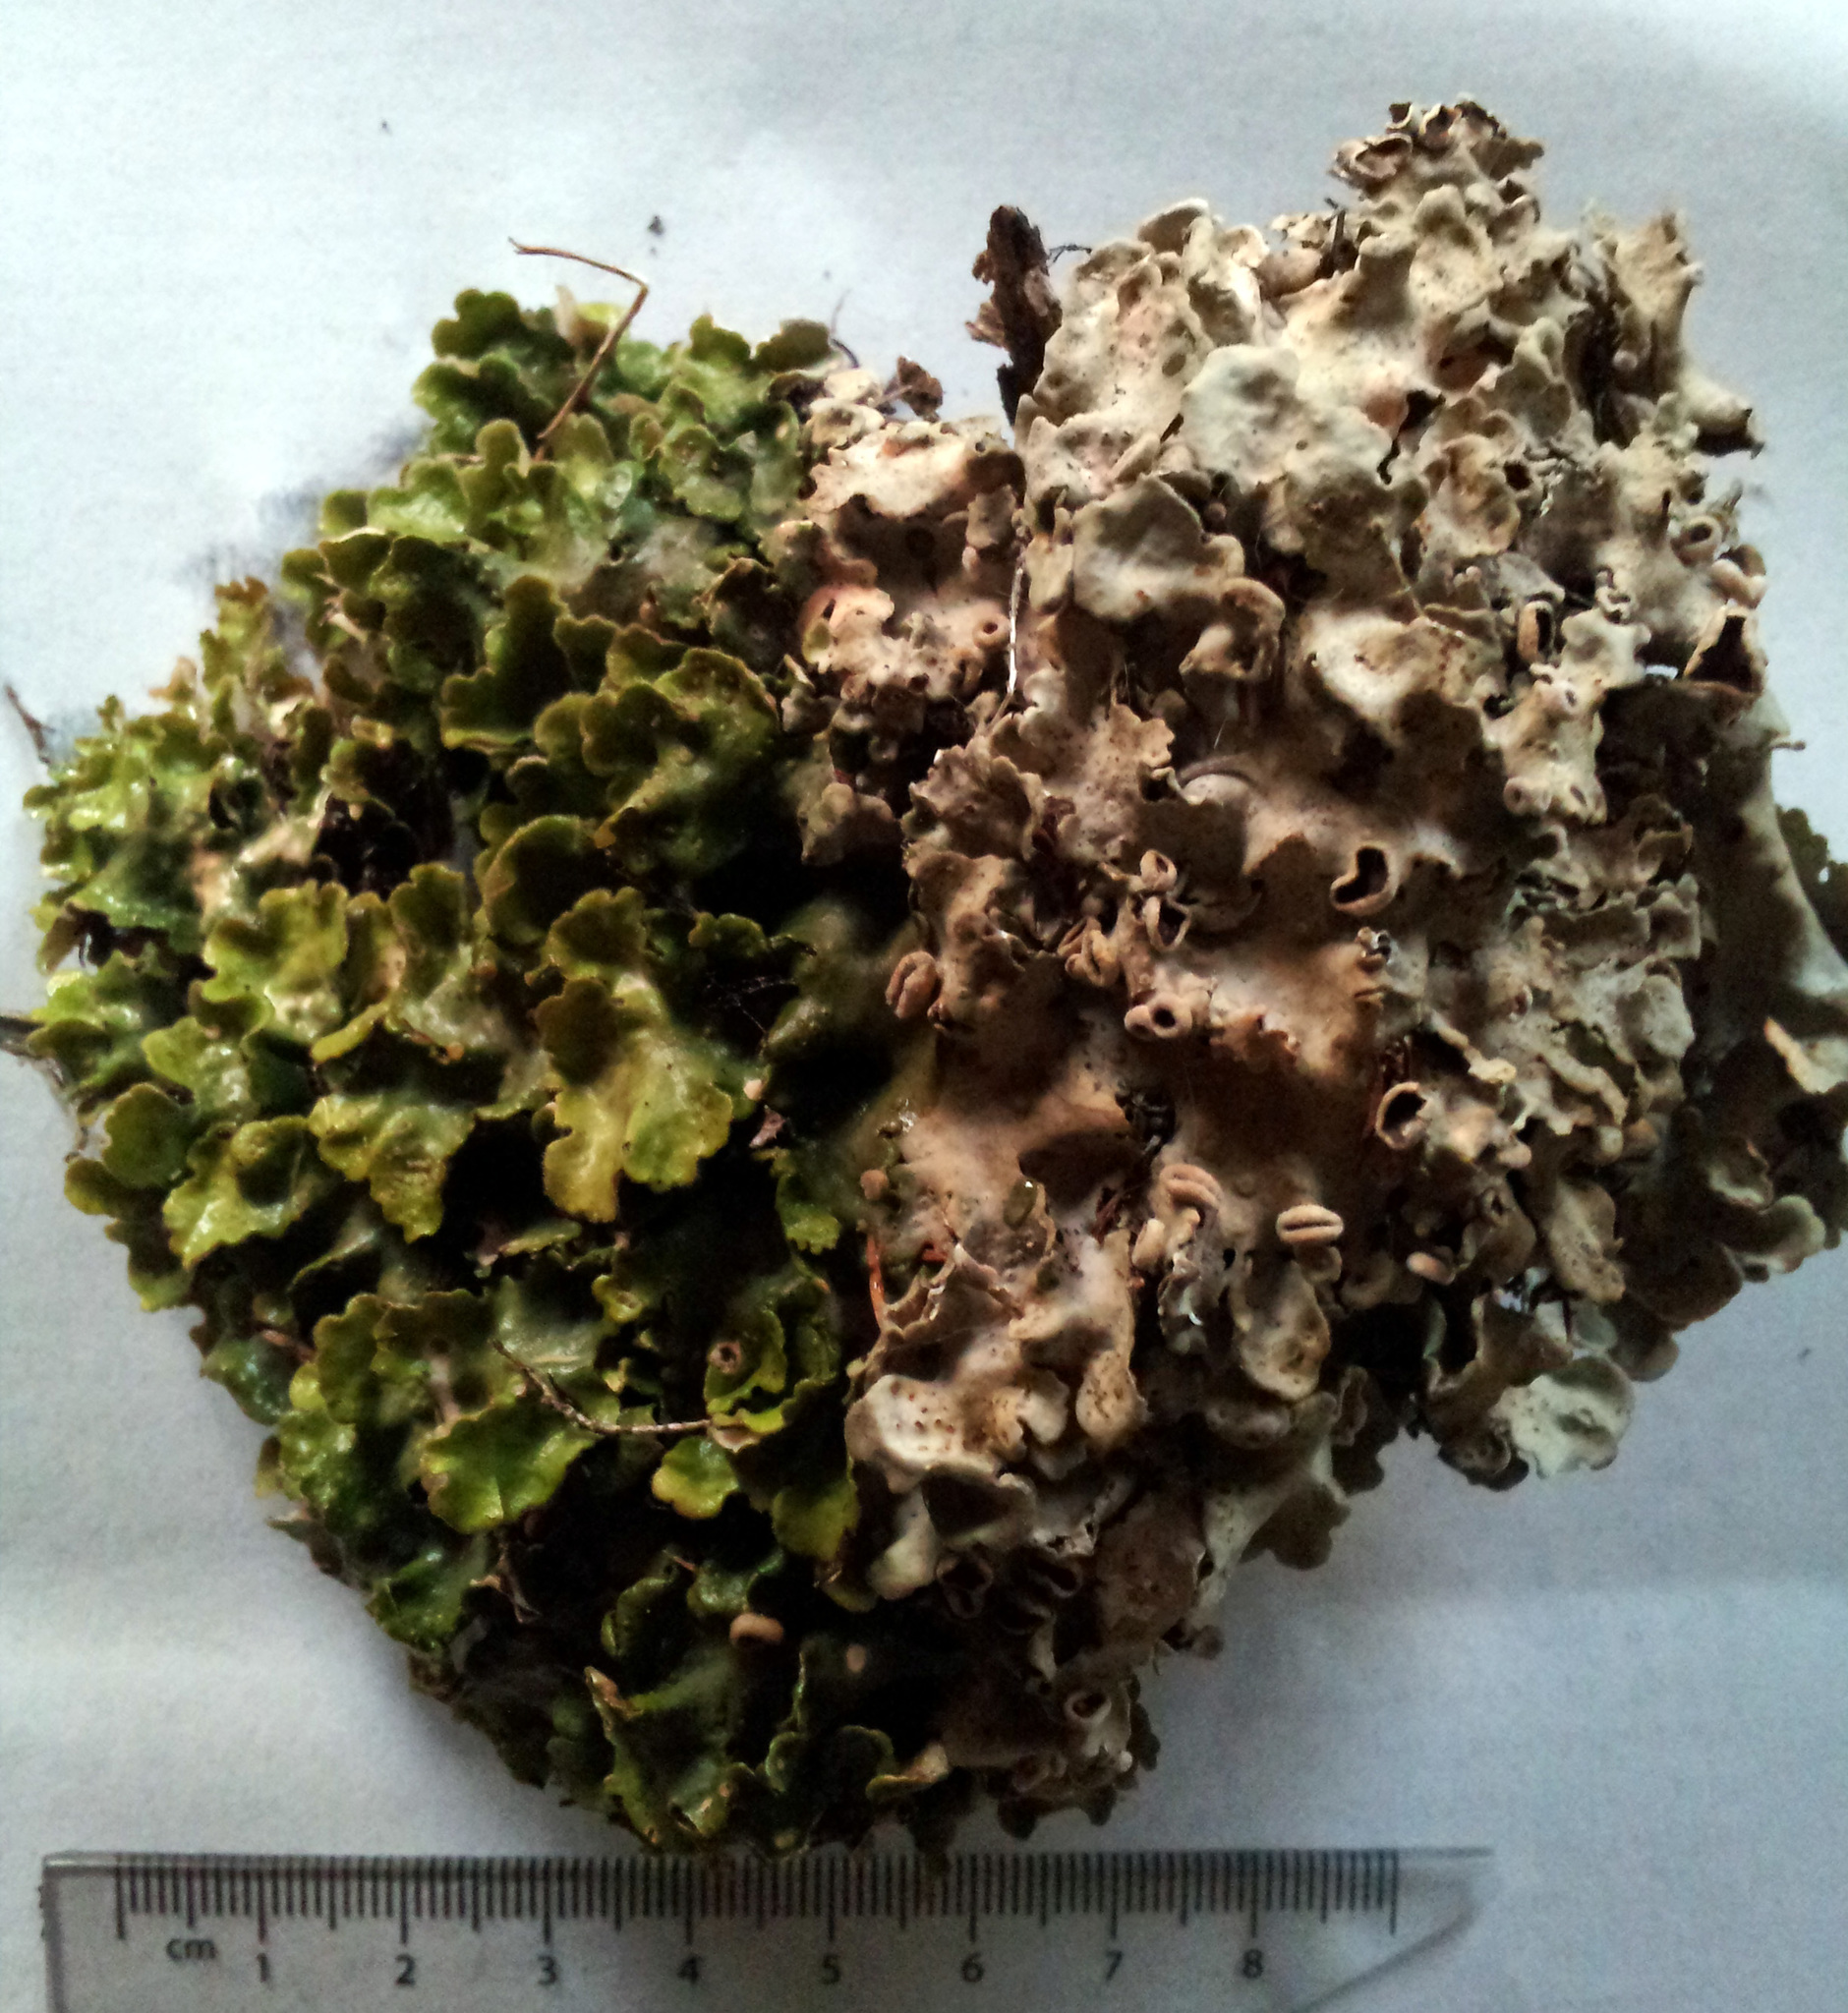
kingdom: Fungi
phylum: Ascomycota
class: Lecanoromycetes
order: Peltigerales
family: Lobariaceae
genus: Pseudocyphellaria
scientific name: Pseudocyphellaria coriacea
